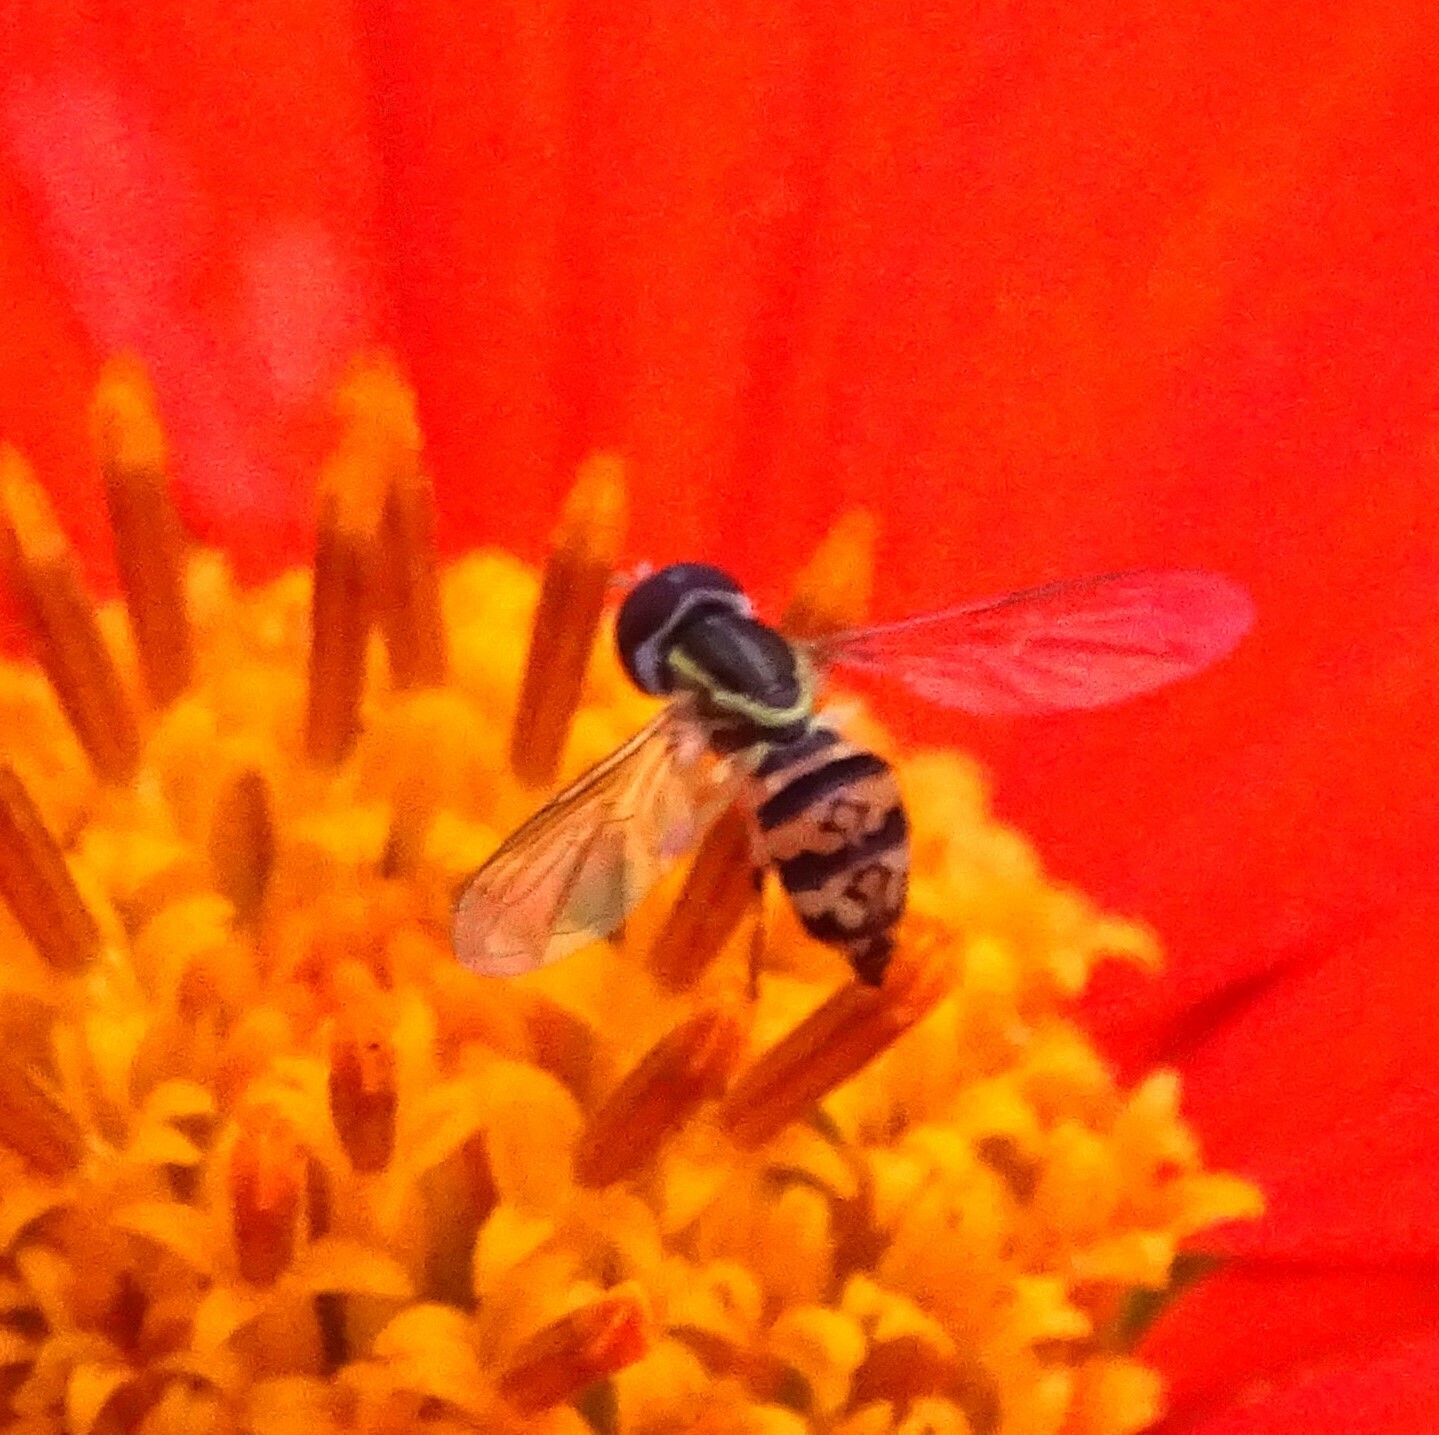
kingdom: Animalia
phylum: Arthropoda
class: Insecta
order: Diptera
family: Syrphidae
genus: Toxomerus
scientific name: Toxomerus geminatus
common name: Eastern calligrapher
